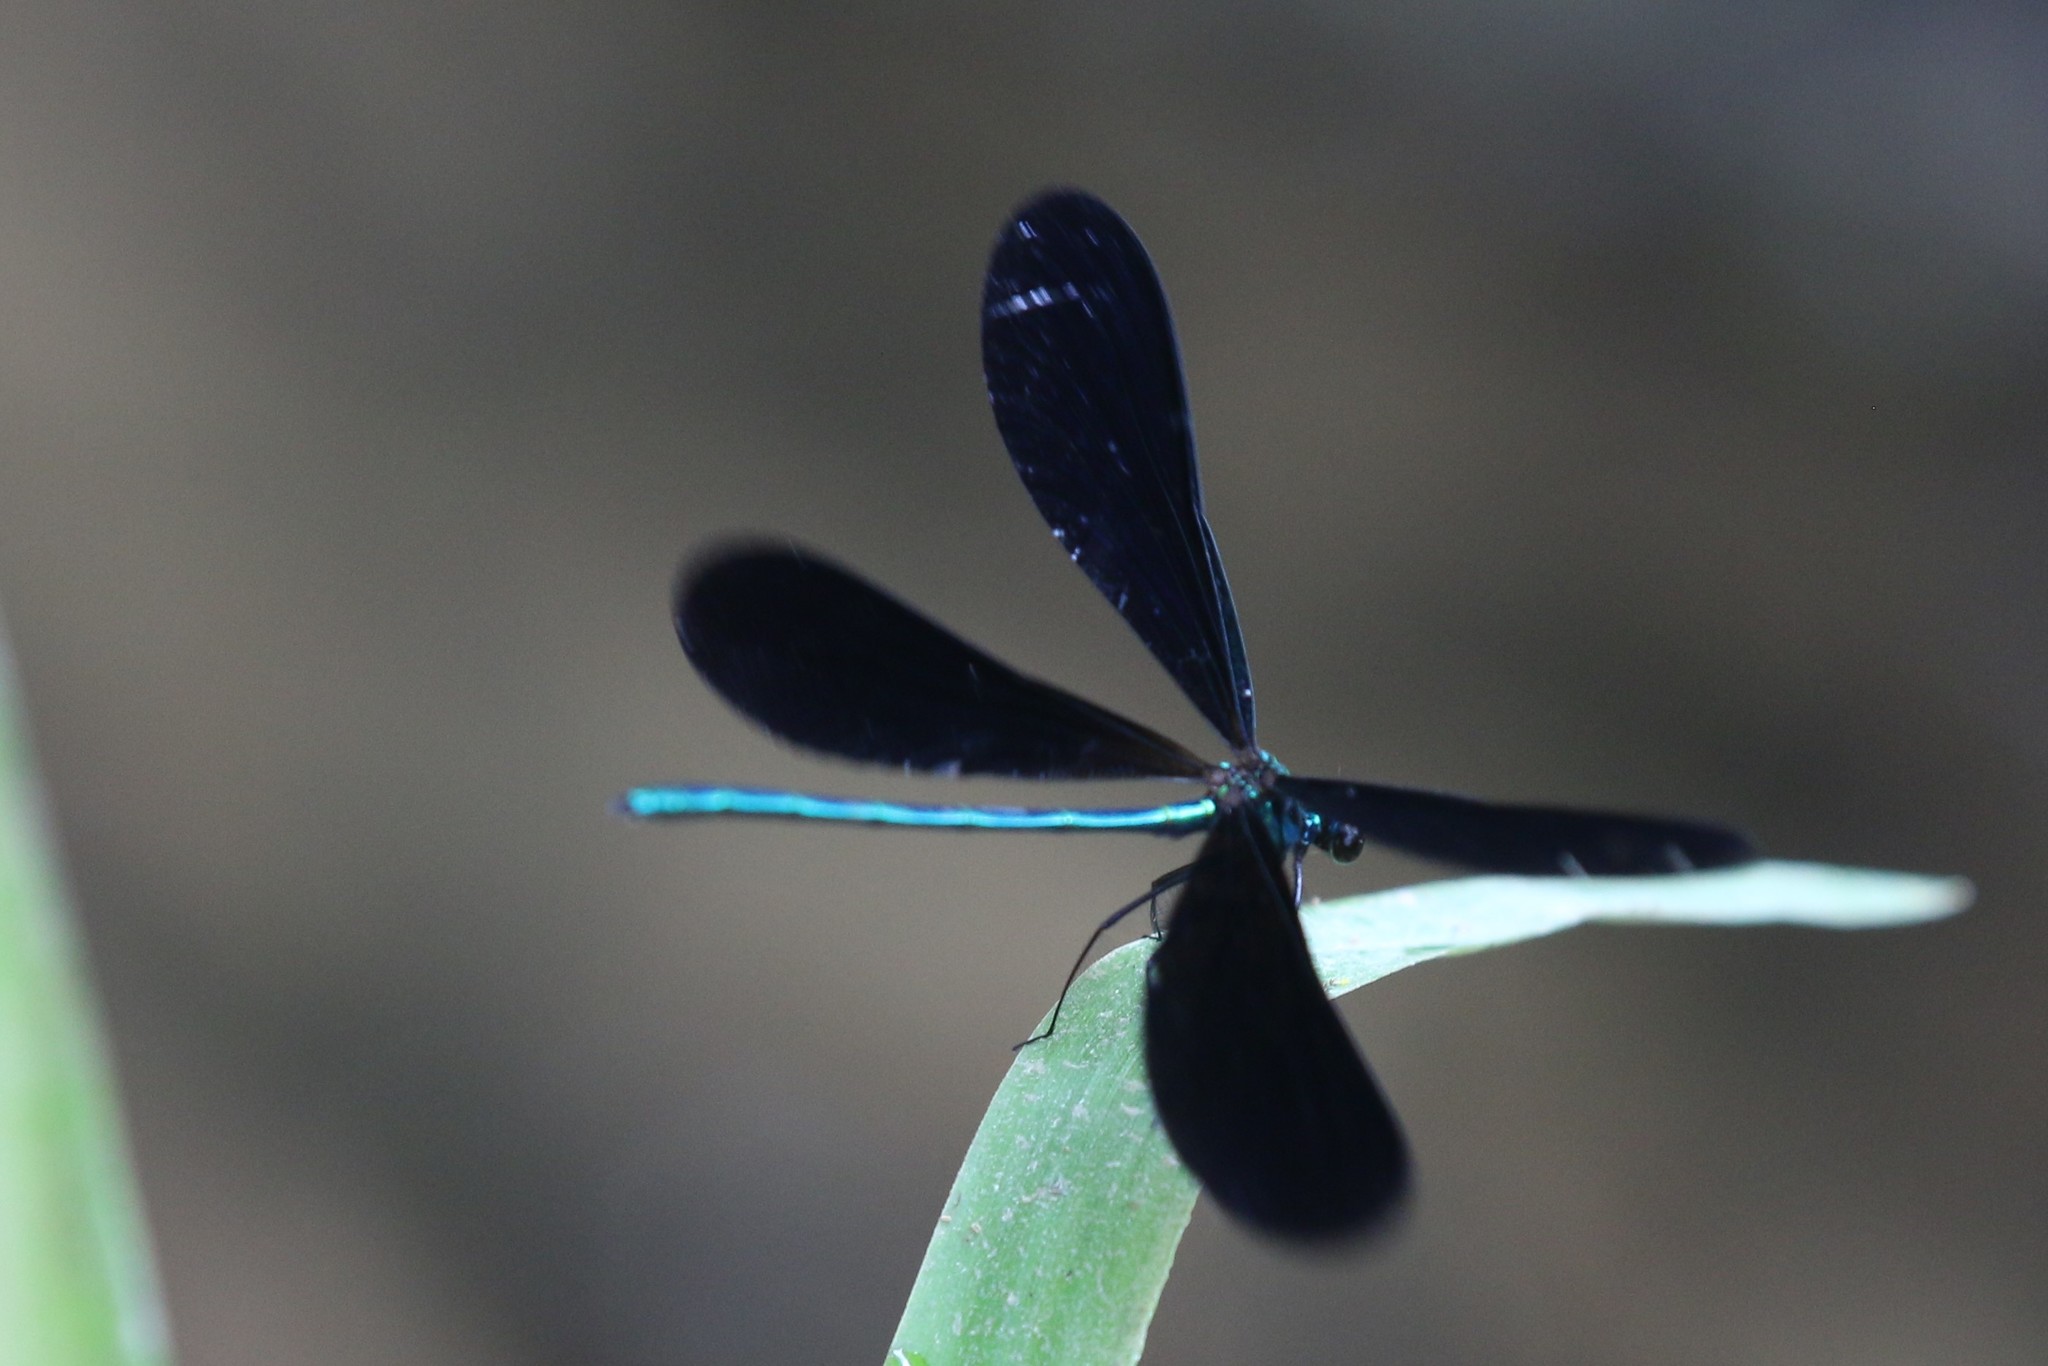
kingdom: Animalia
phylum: Arthropoda
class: Insecta
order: Odonata
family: Calopterygidae
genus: Calopteryx
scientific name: Calopteryx maculata
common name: Ebony jewelwing
